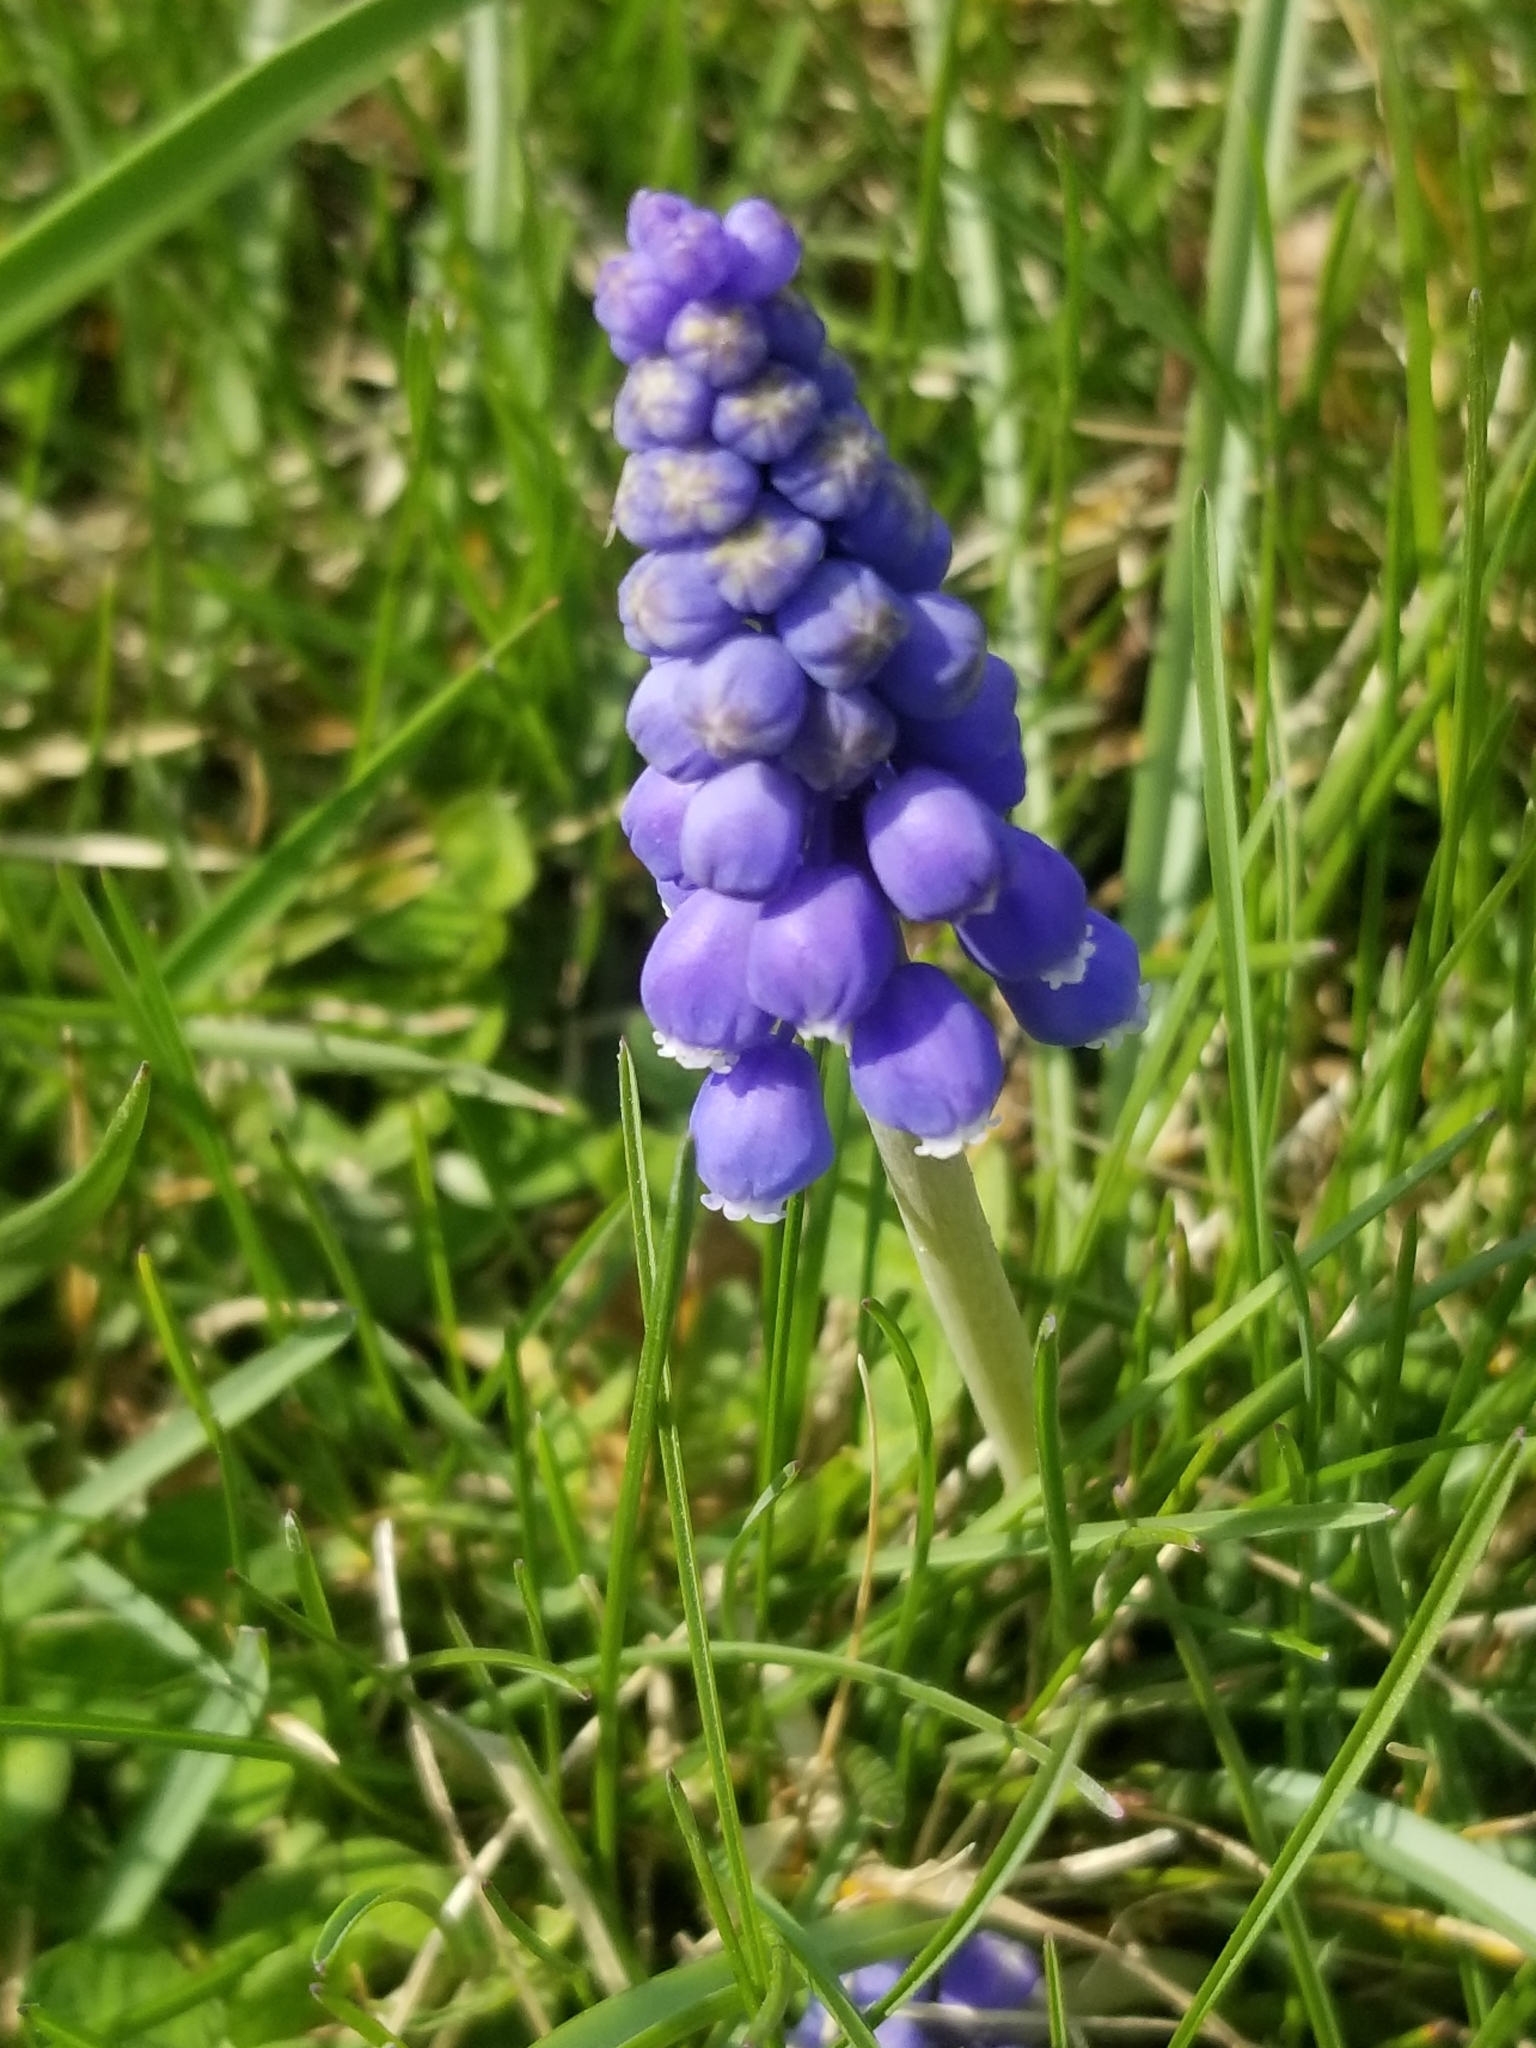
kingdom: Plantae
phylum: Tracheophyta
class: Liliopsida
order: Asparagales
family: Asparagaceae
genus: Muscari
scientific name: Muscari botryoides
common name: Compact grape-hyacinth
